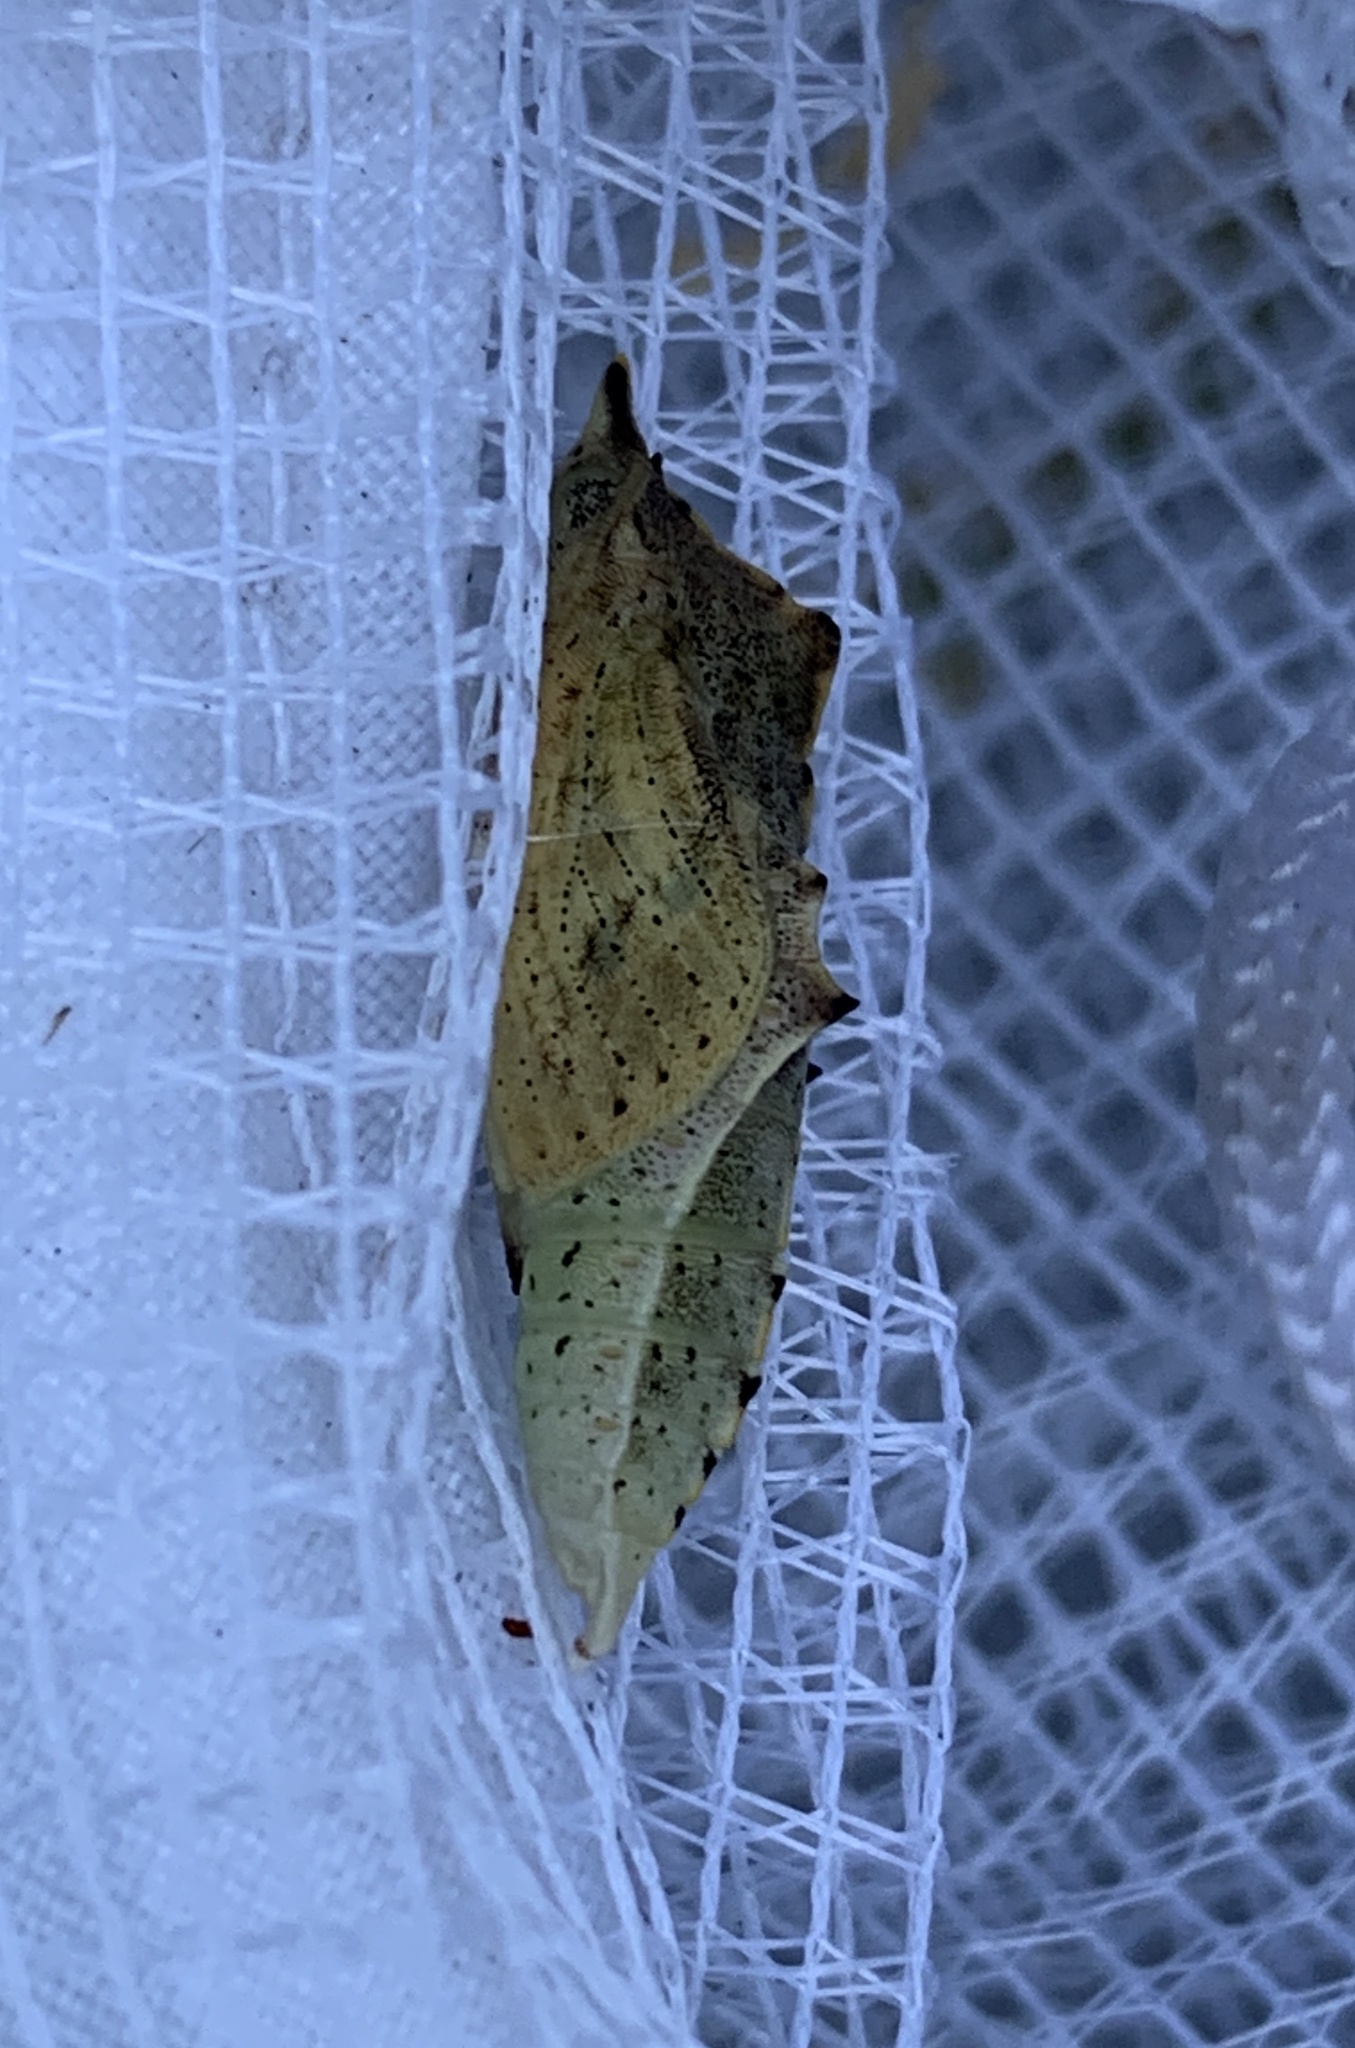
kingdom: Animalia
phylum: Arthropoda
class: Insecta
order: Lepidoptera
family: Pieridae
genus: Pieris
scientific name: Pieris rapae
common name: Small white
